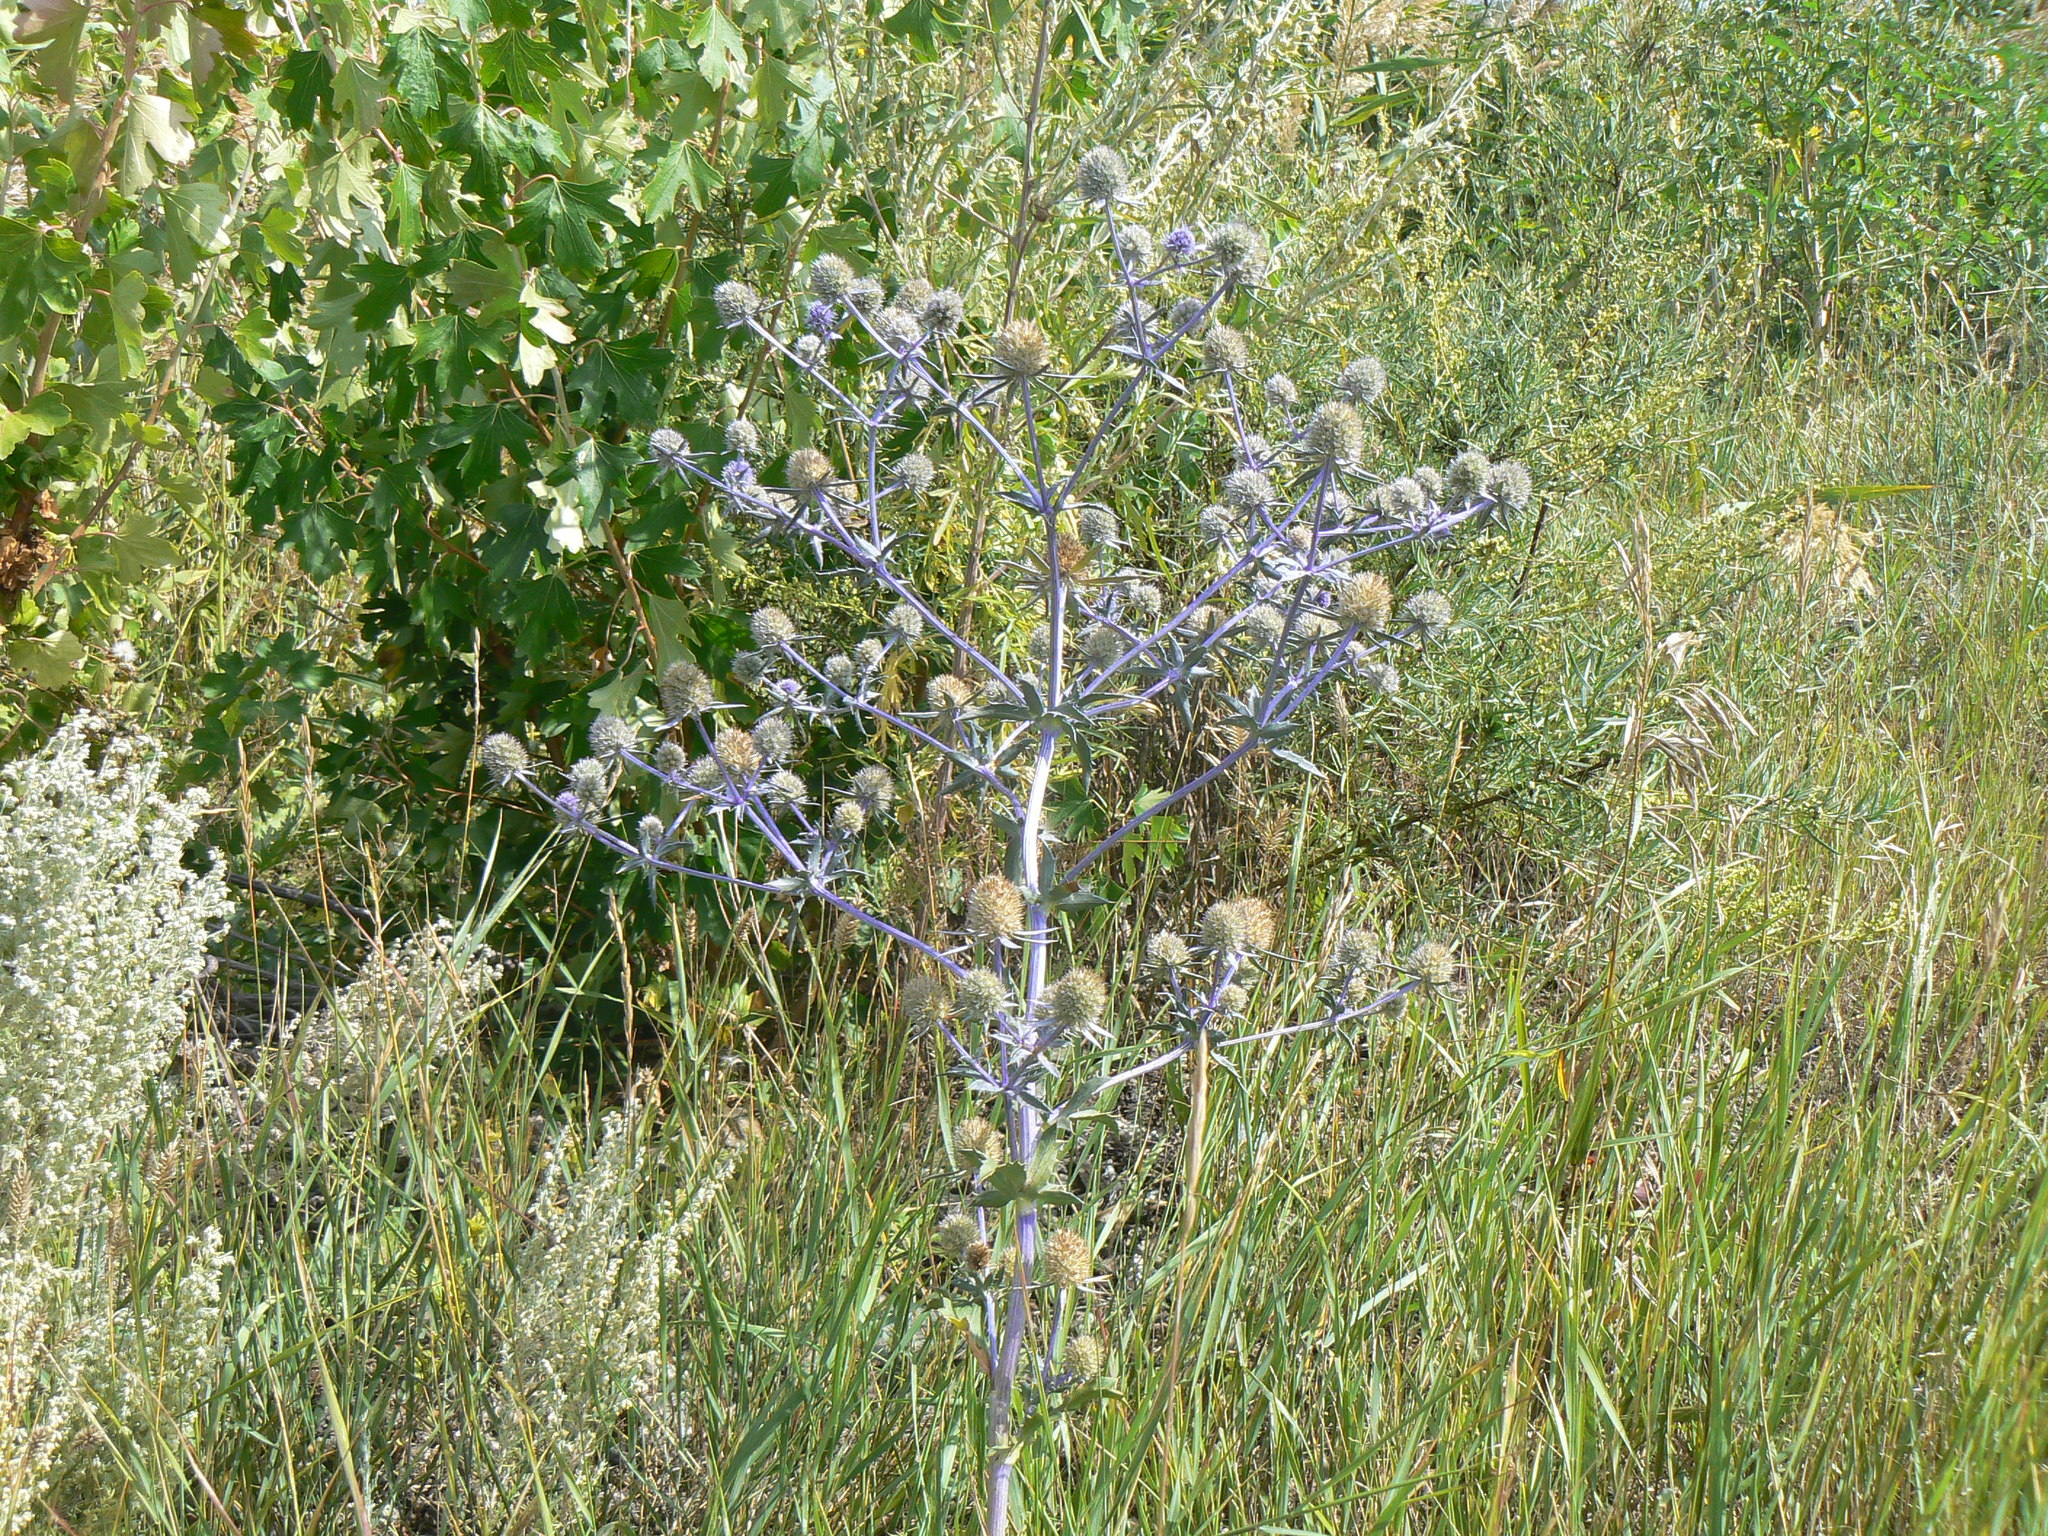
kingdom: Plantae
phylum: Tracheophyta
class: Magnoliopsida
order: Apiales
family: Apiaceae
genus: Eryngium
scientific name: Eryngium planum
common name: Blue eryngo
